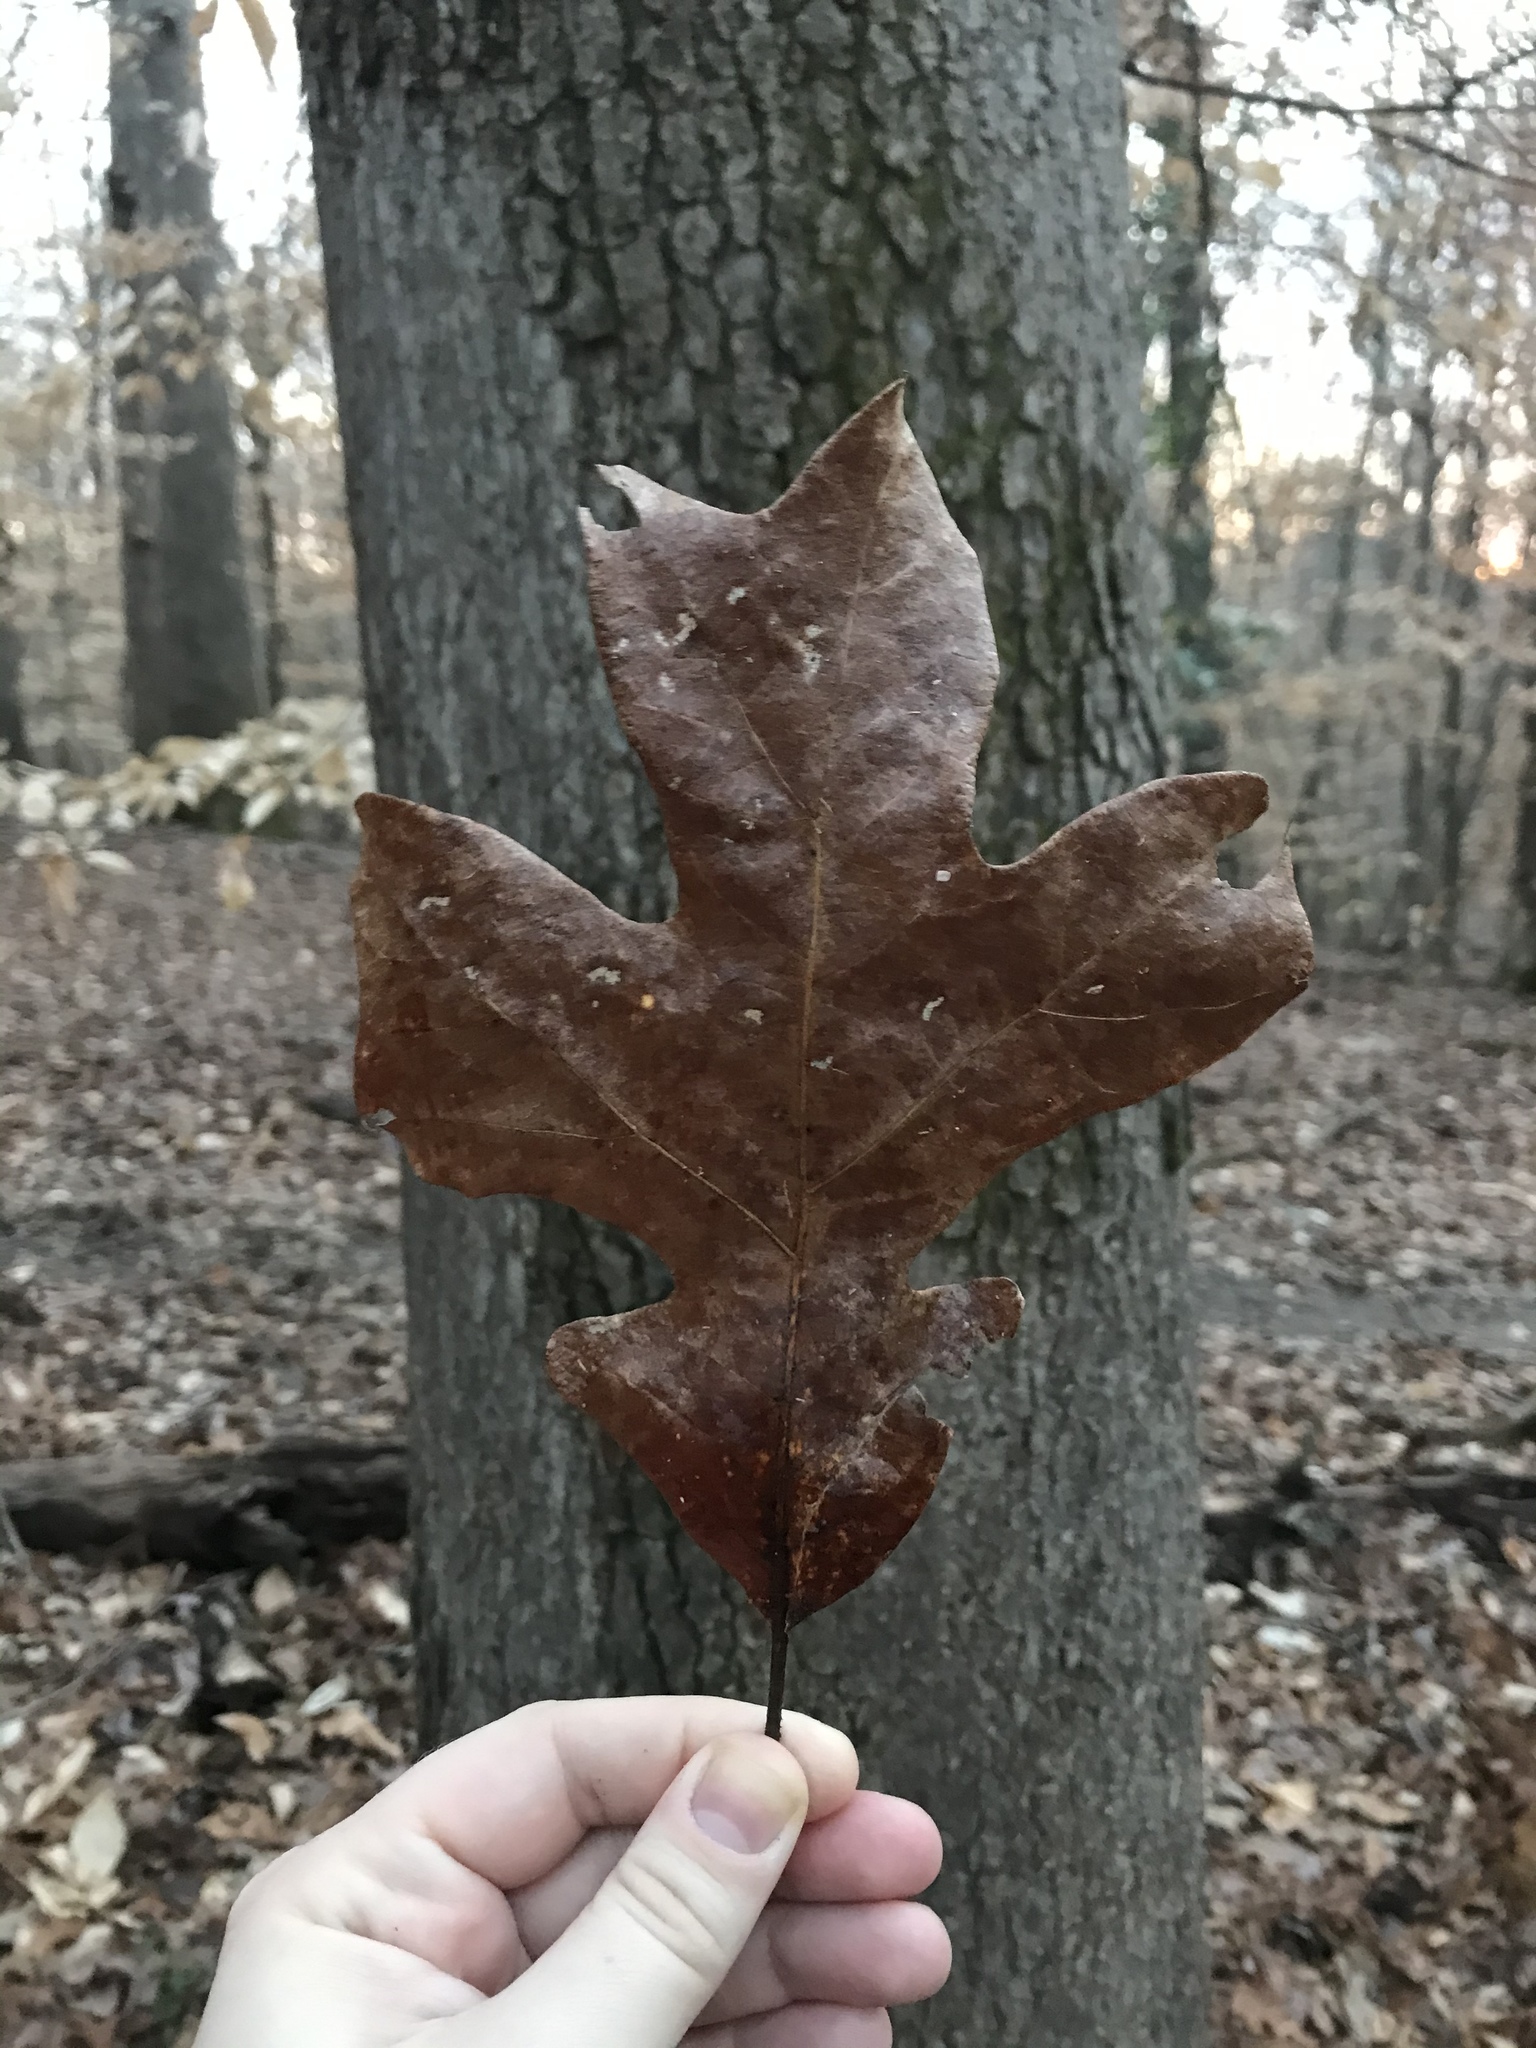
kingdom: Plantae
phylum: Tracheophyta
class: Magnoliopsida
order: Fagales
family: Fagaceae
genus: Quercus
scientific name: Quercus stellata
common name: Post oak
